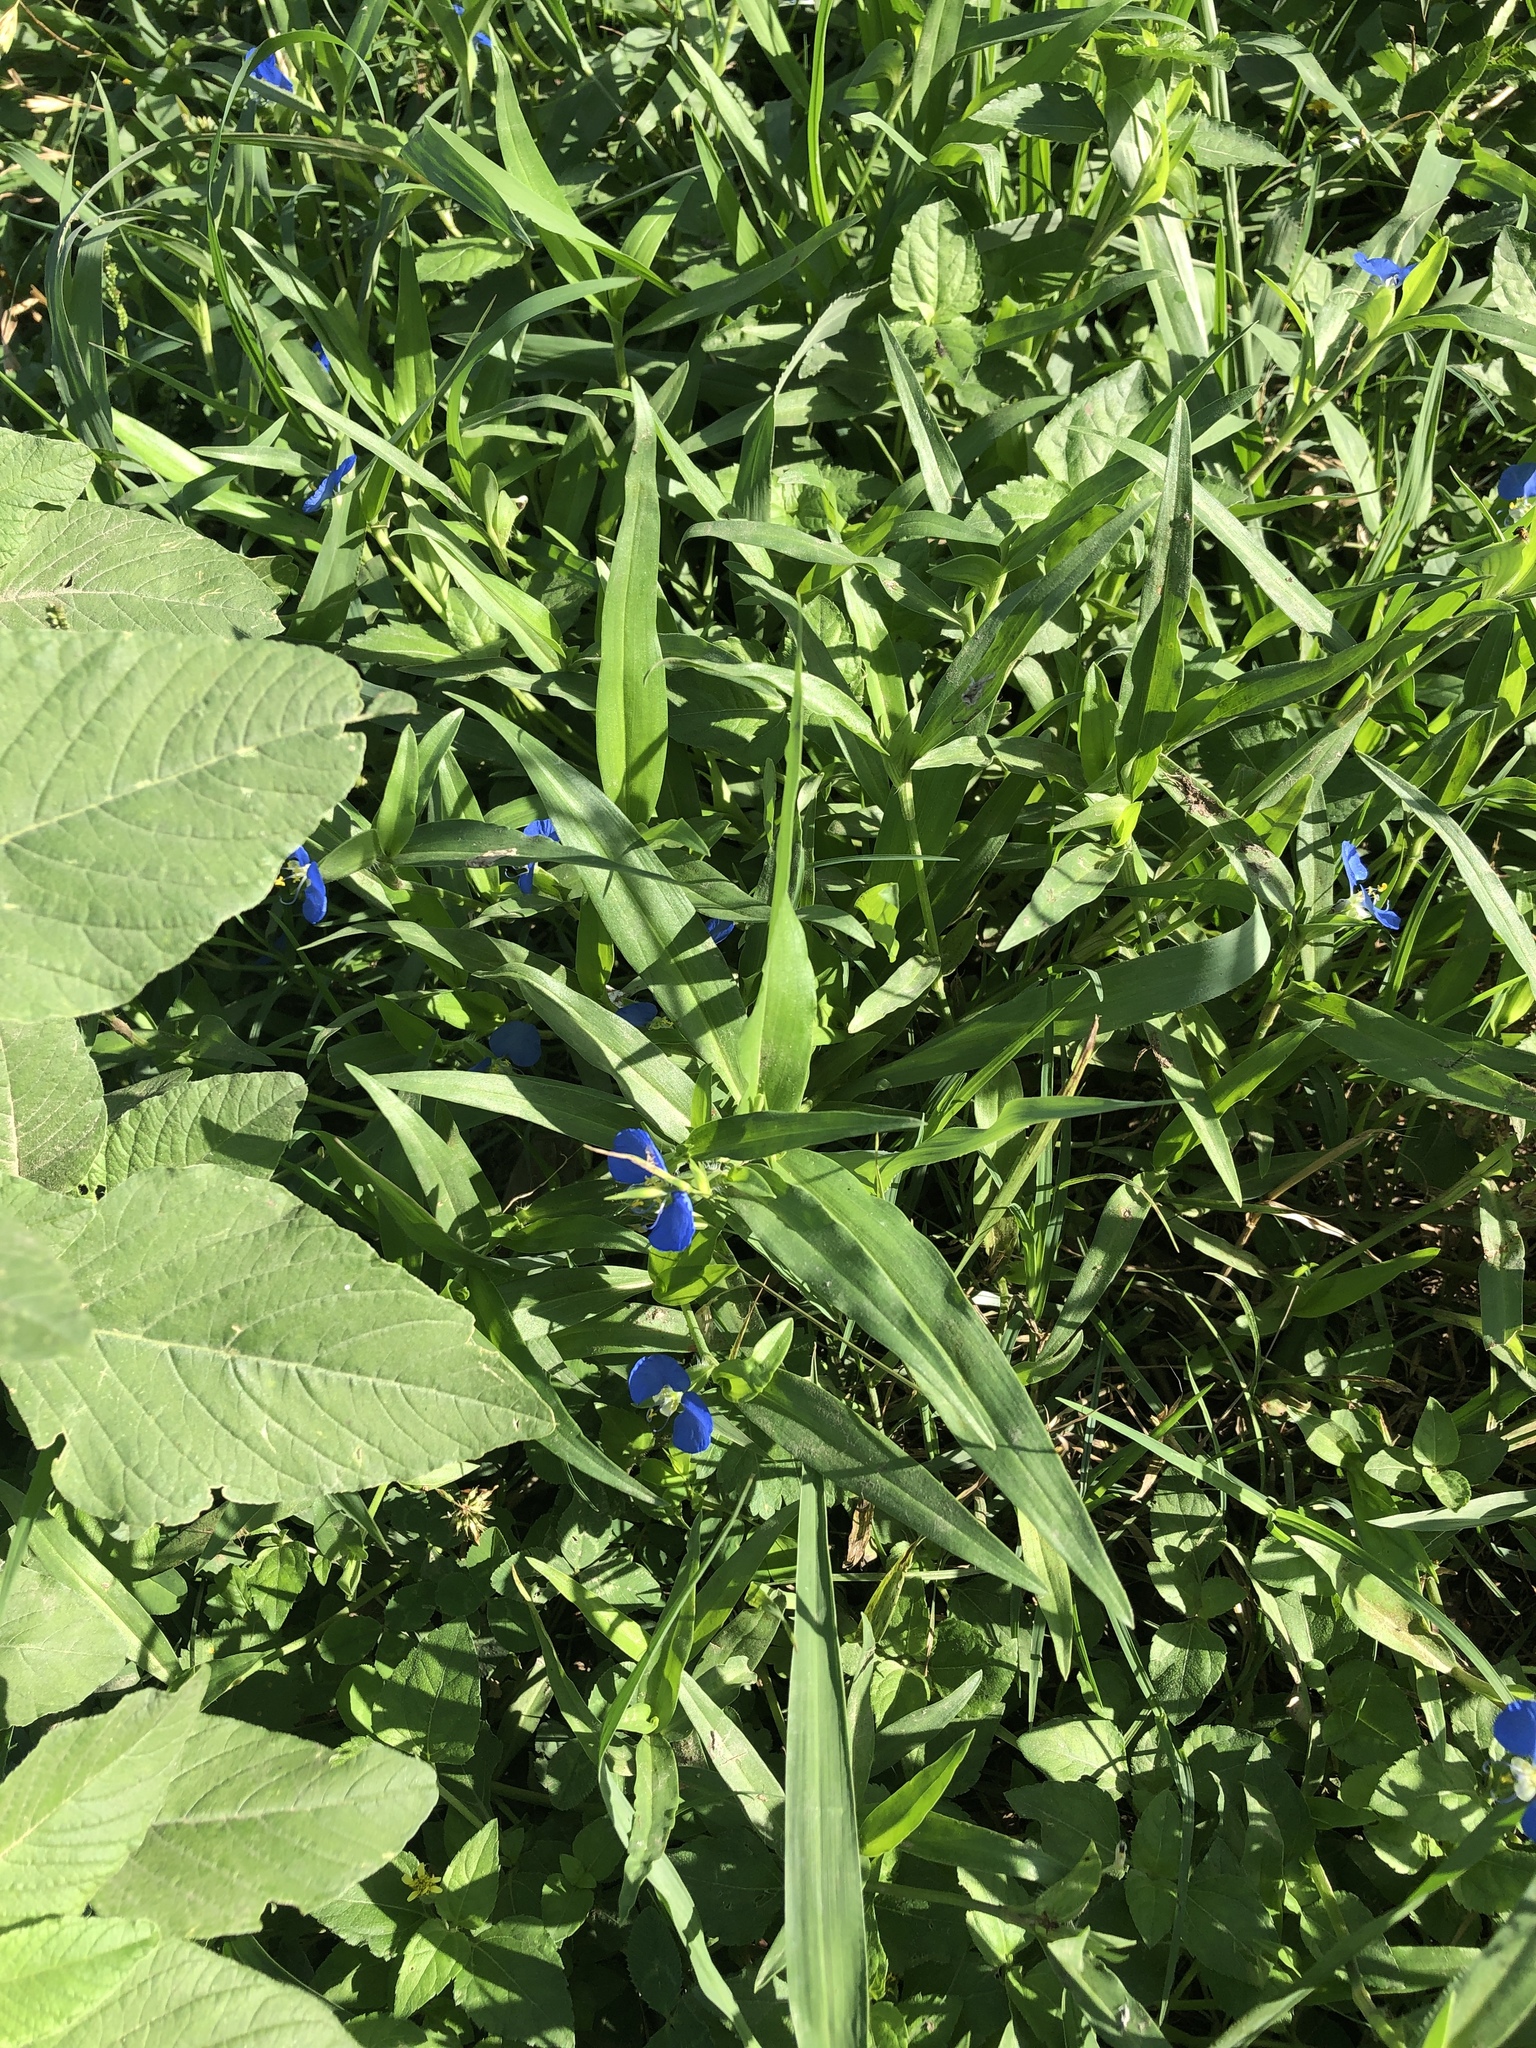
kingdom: Plantae
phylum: Tracheophyta
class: Liliopsida
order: Commelinales
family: Commelinaceae
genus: Commelina
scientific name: Commelina erecta
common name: Blousel blommetjie
